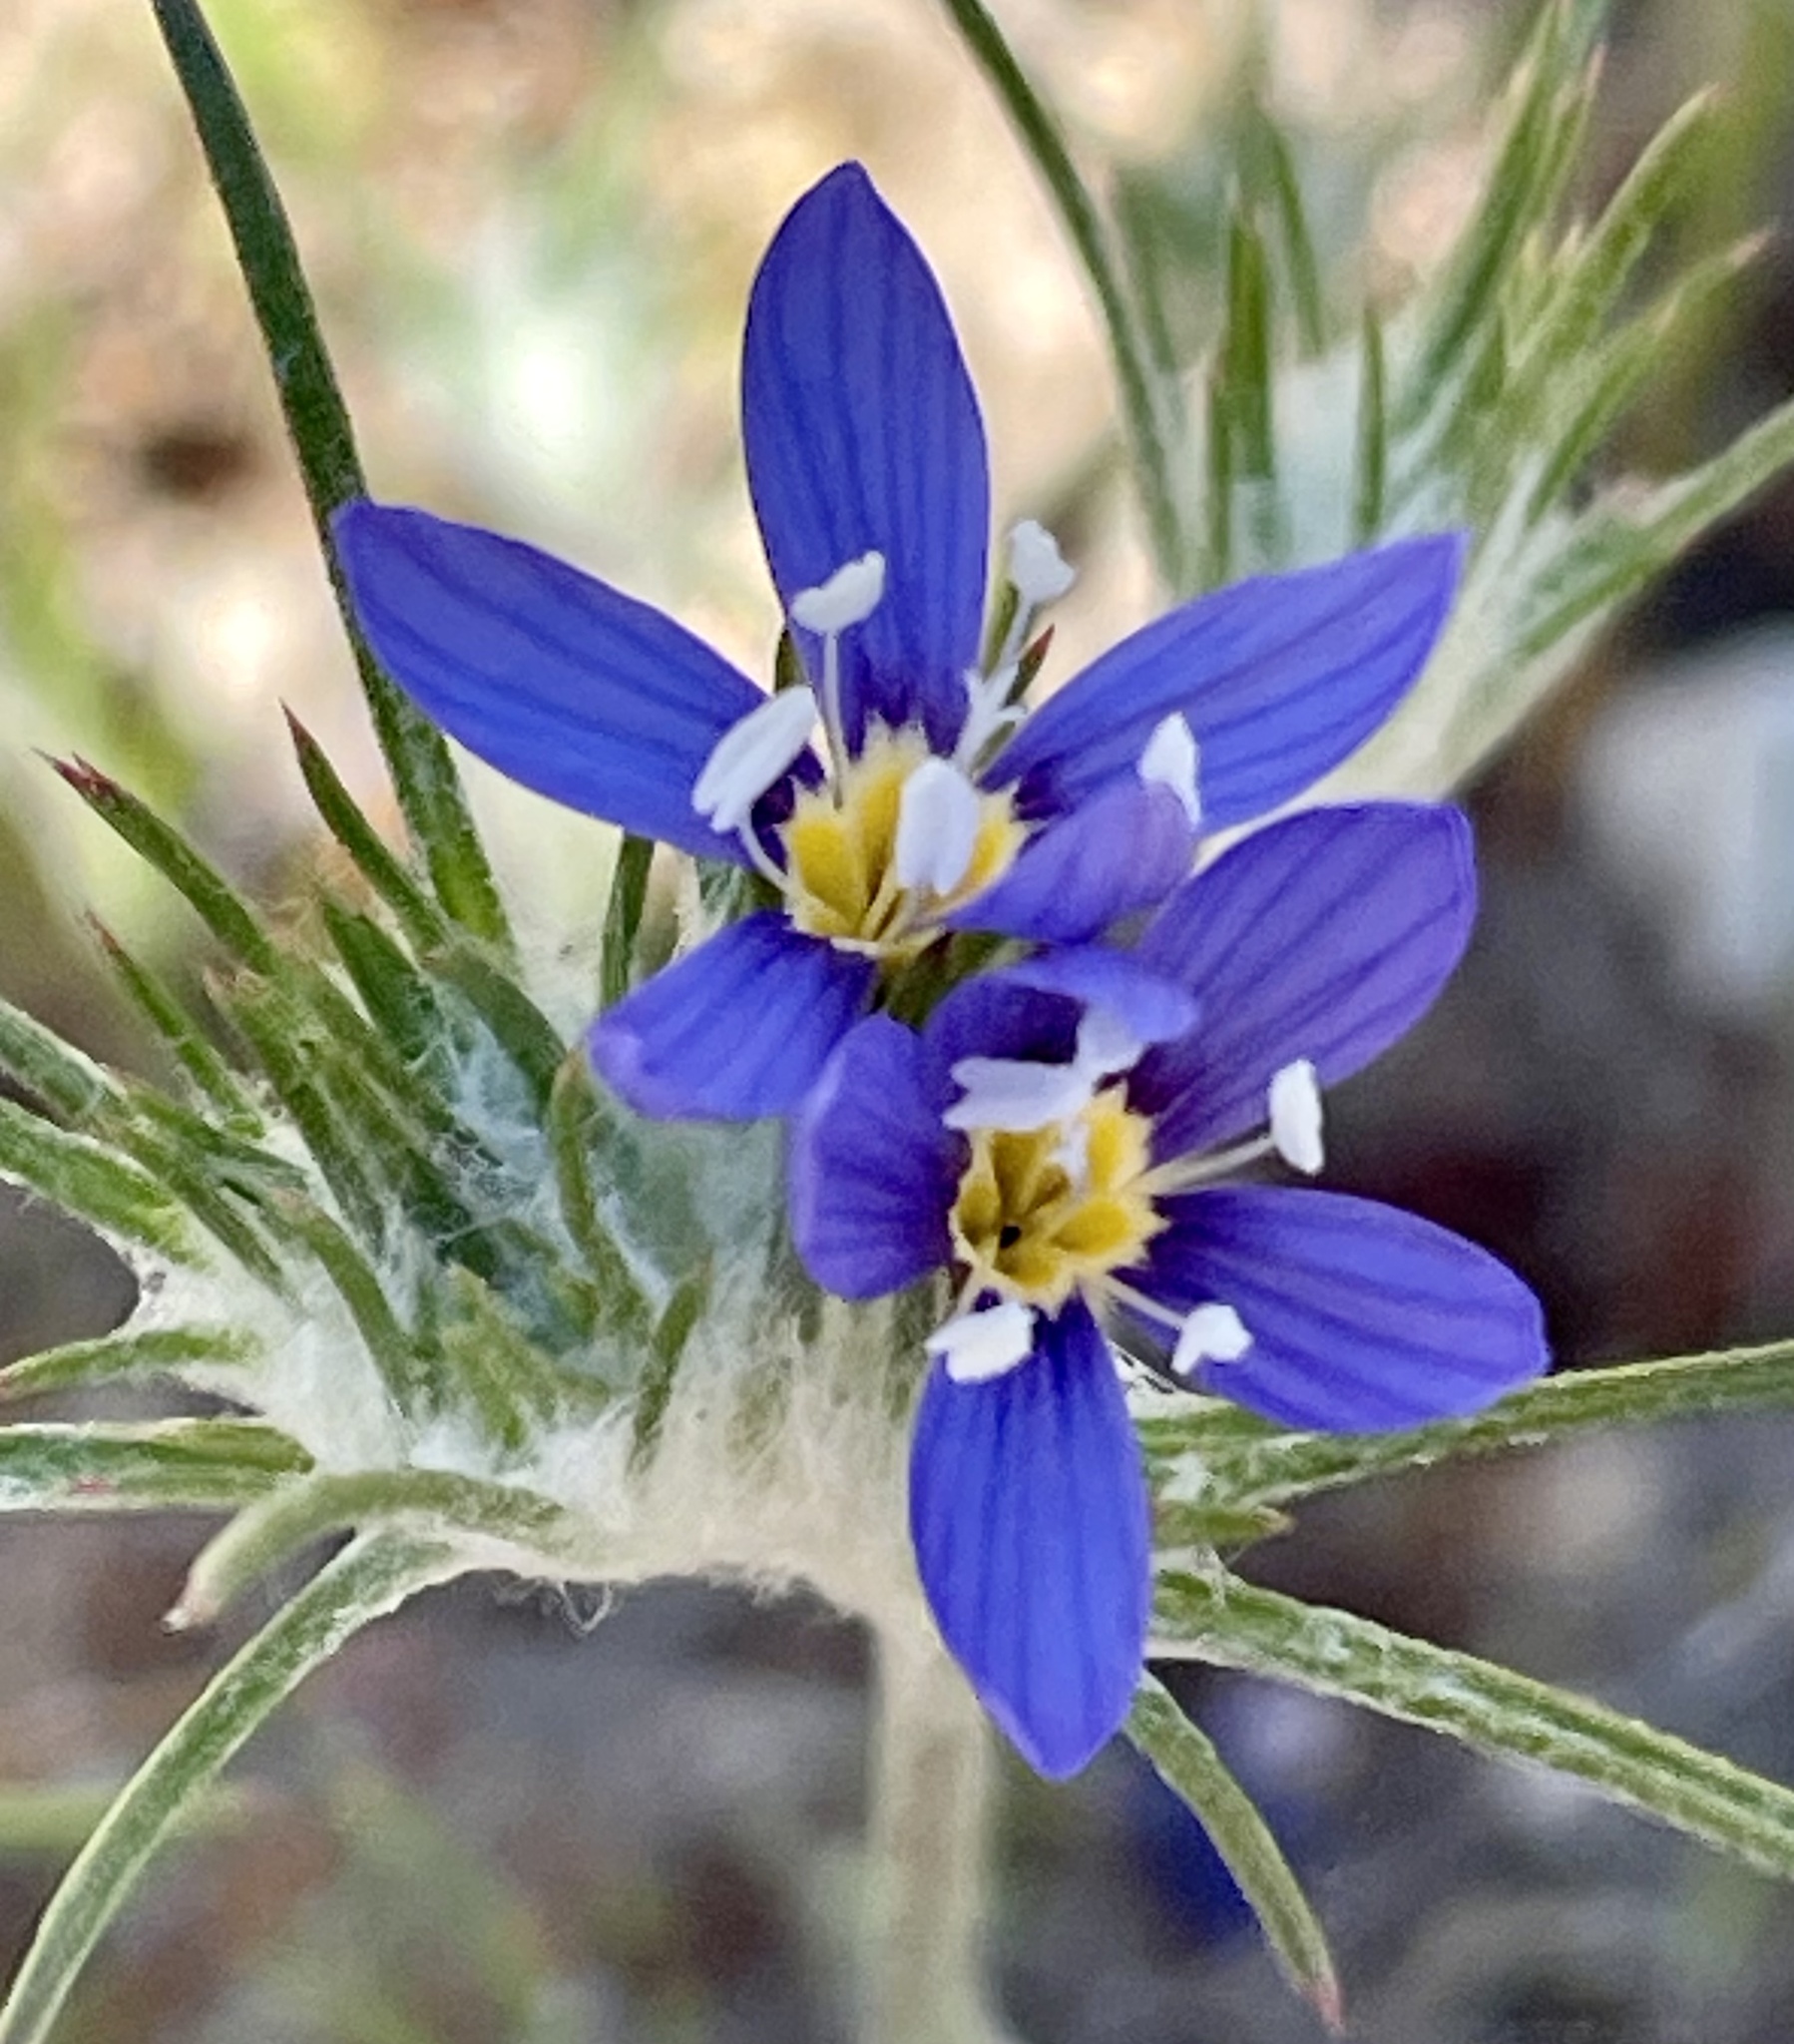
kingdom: Plantae
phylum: Tracheophyta
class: Magnoliopsida
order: Ericales
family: Polemoniaceae
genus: Eriastrum
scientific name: Eriastrum virgatum
